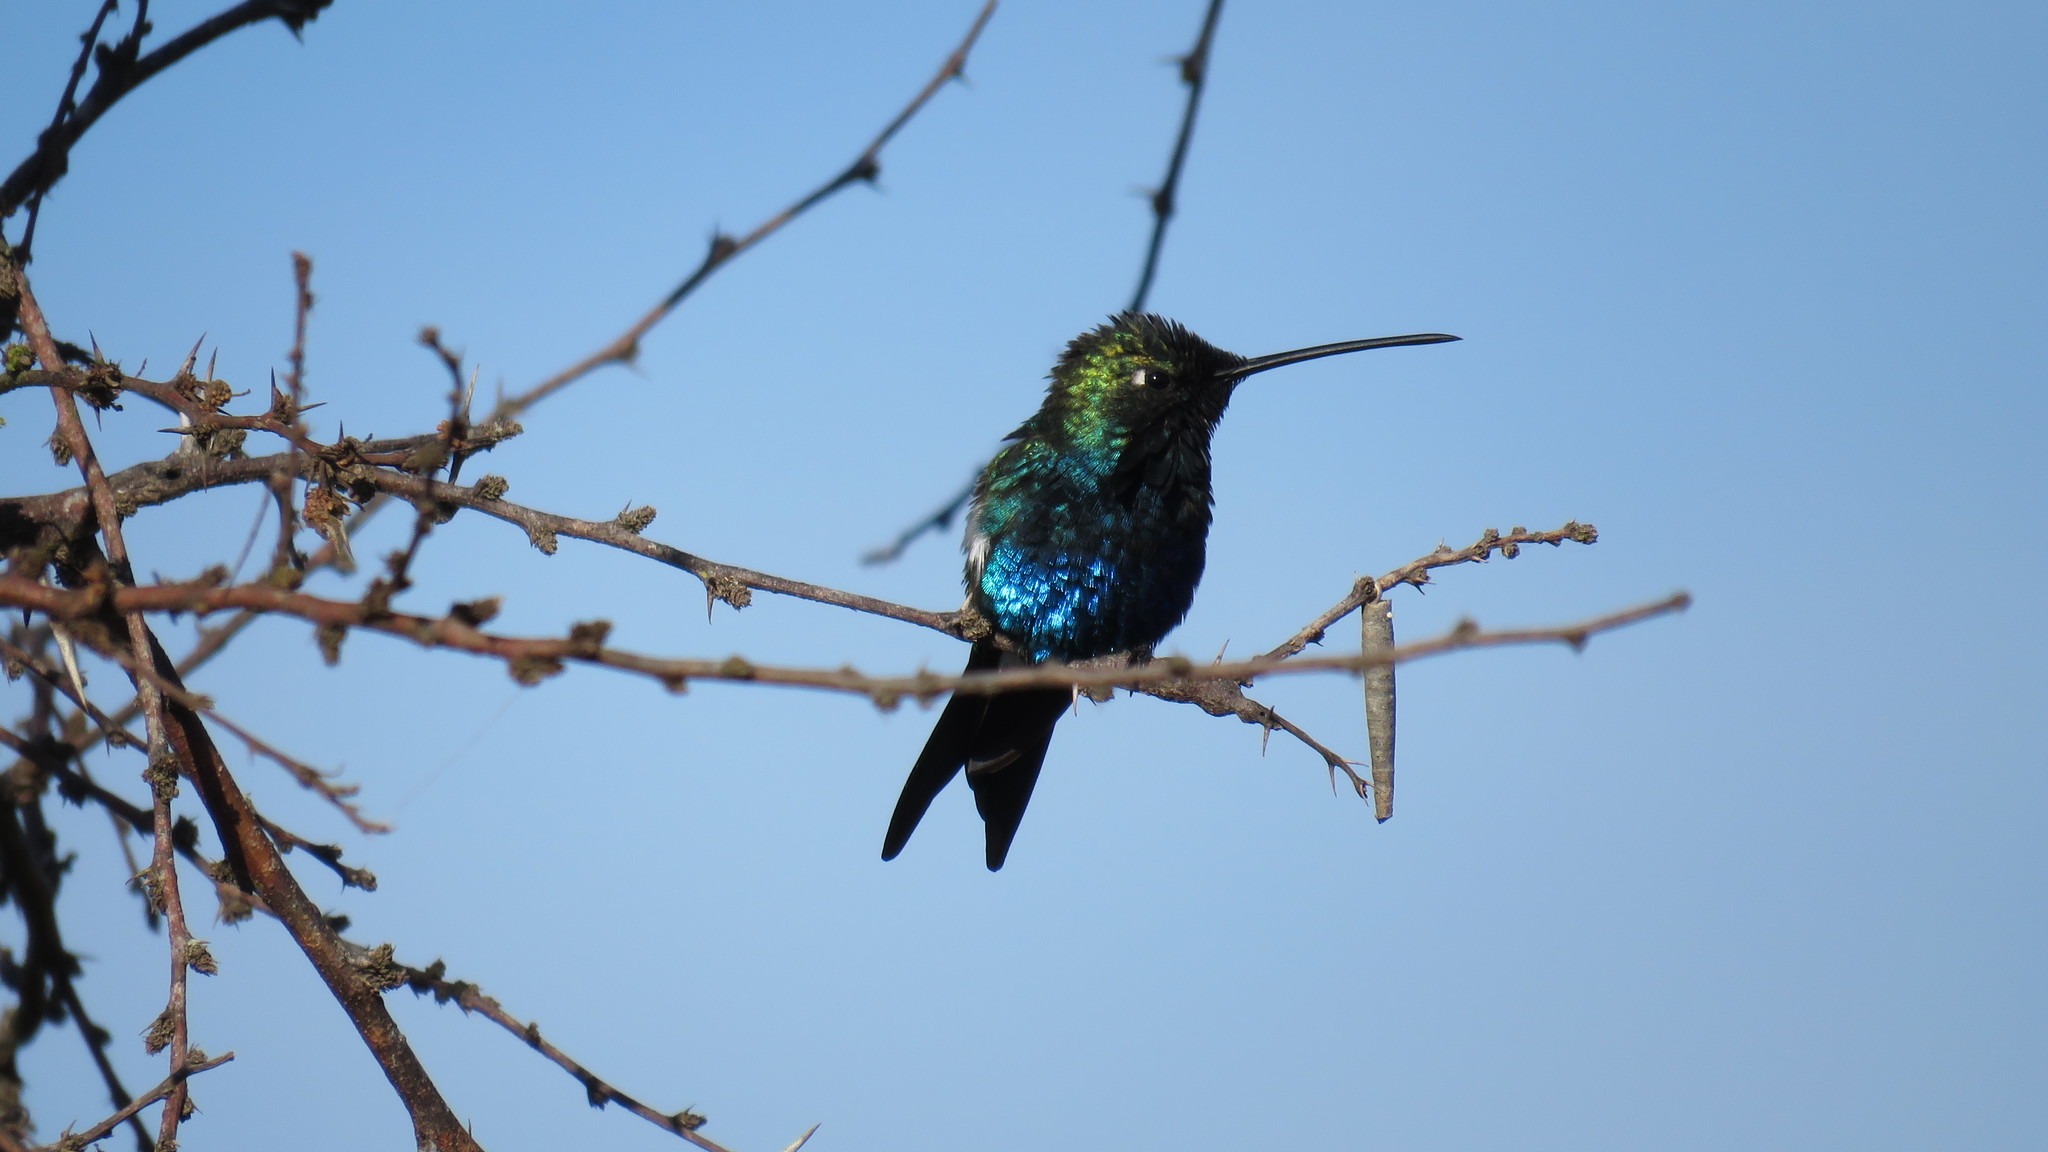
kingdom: Animalia
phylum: Chordata
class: Aves
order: Apodiformes
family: Trochilidae
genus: Heliomaster
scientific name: Heliomaster furcifer
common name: Blue-tufted starthroat
